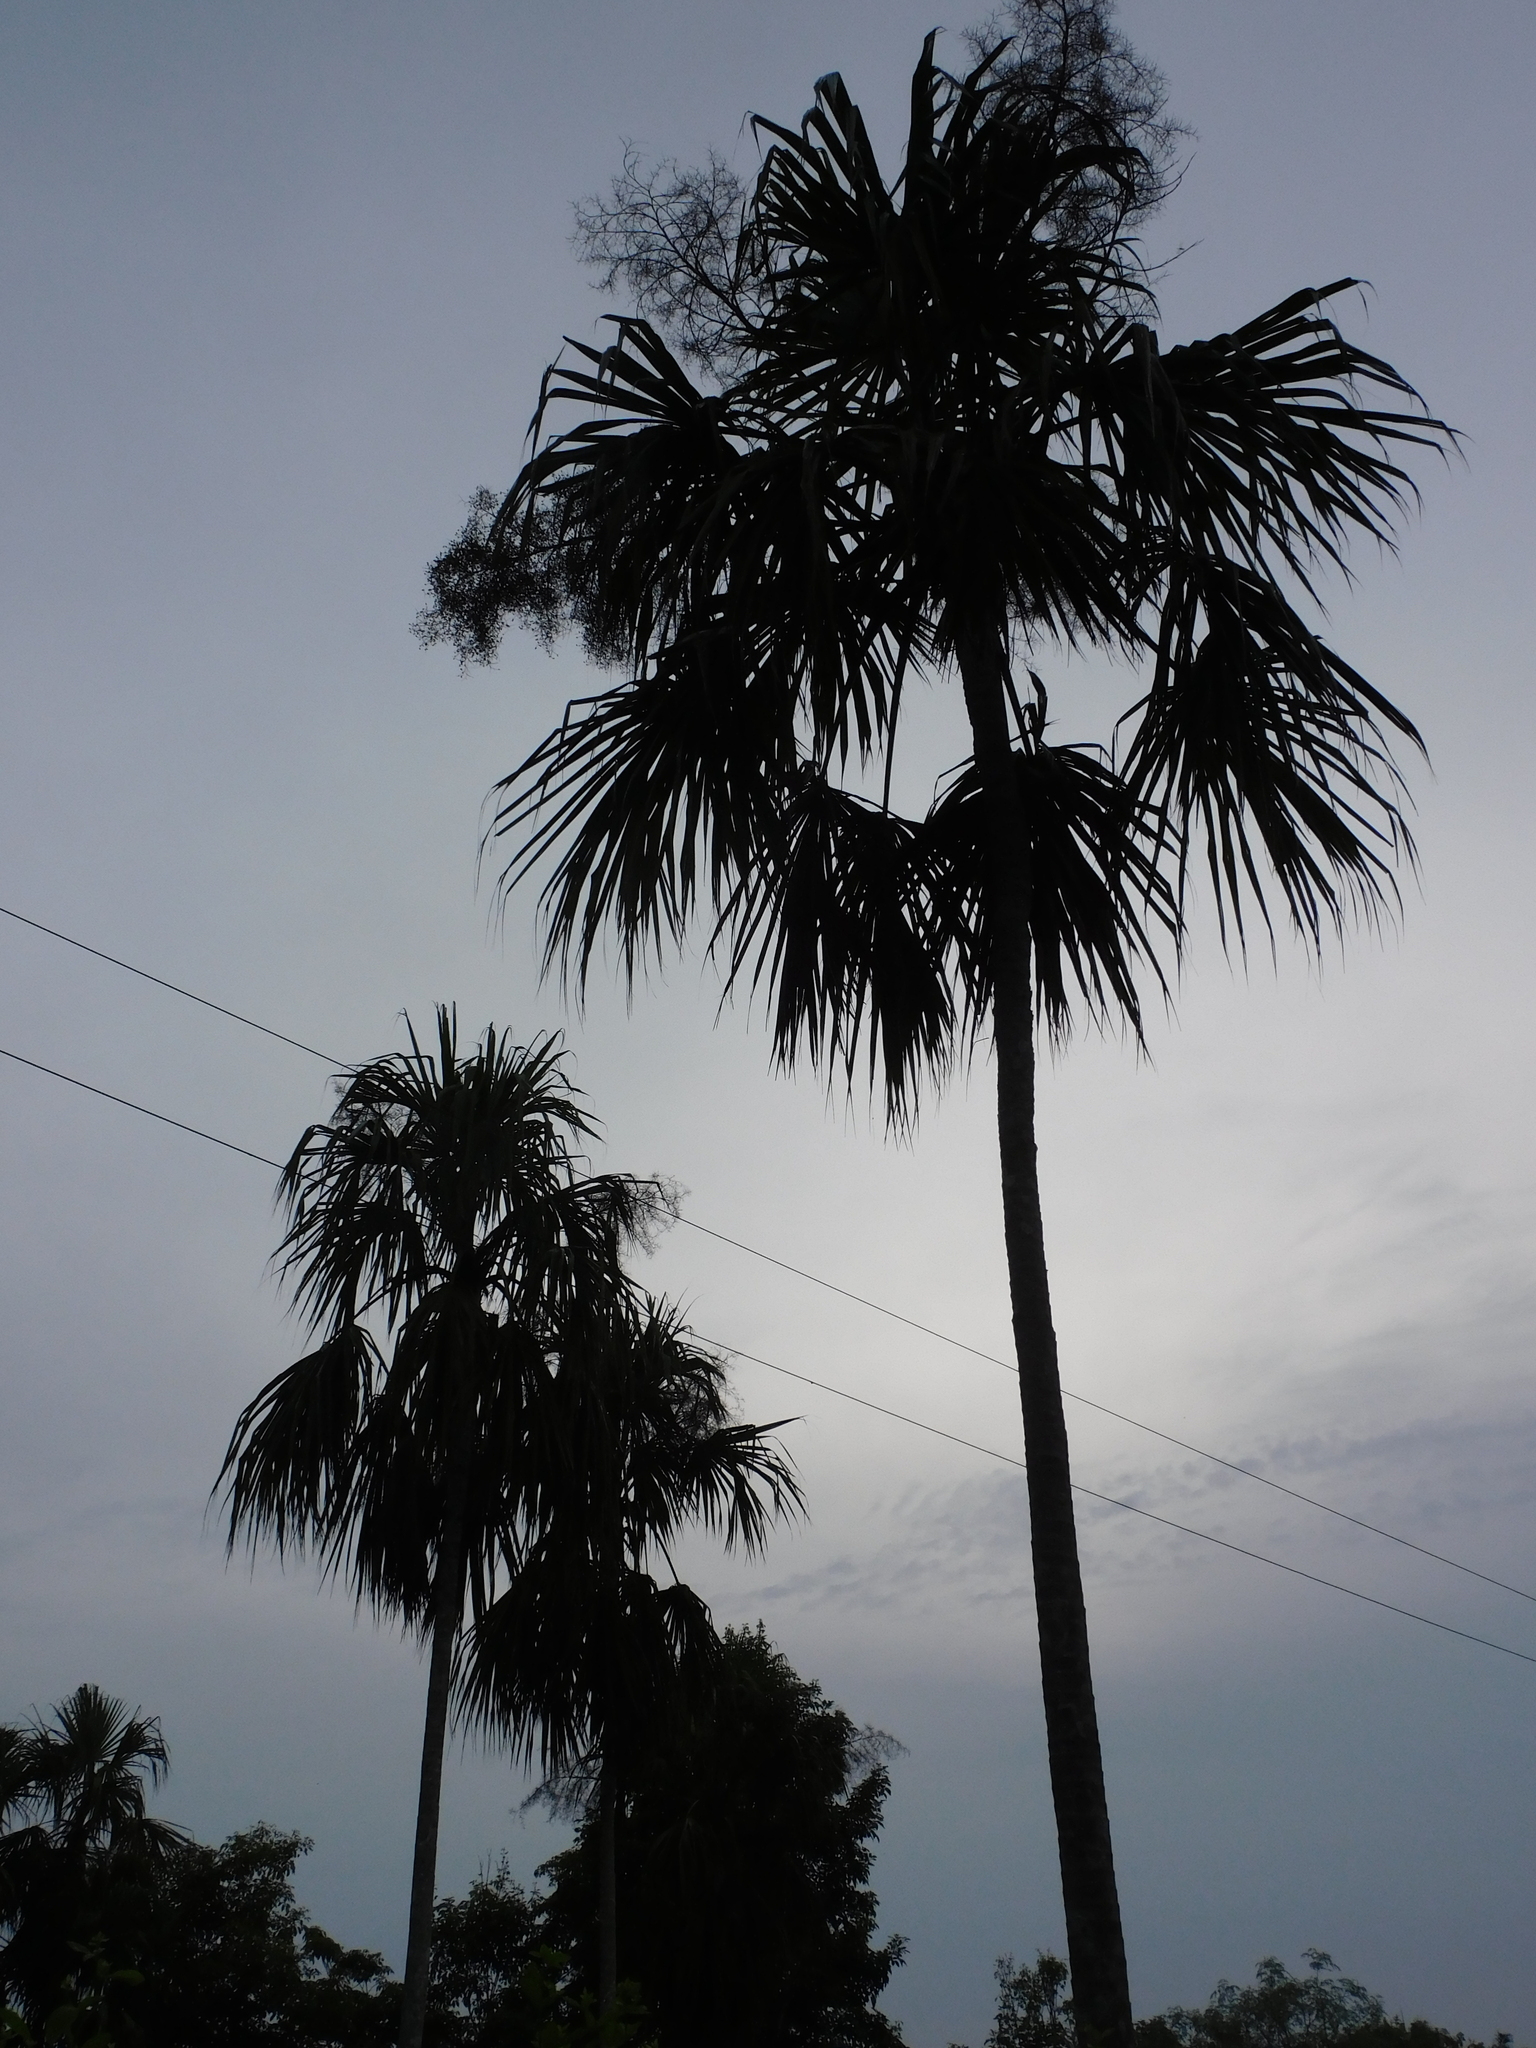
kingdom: Plantae
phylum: Tracheophyta
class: Liliopsida
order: Arecales
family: Arecaceae
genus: Sabal
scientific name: Sabal mauritiiformis
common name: Trinidad palm
